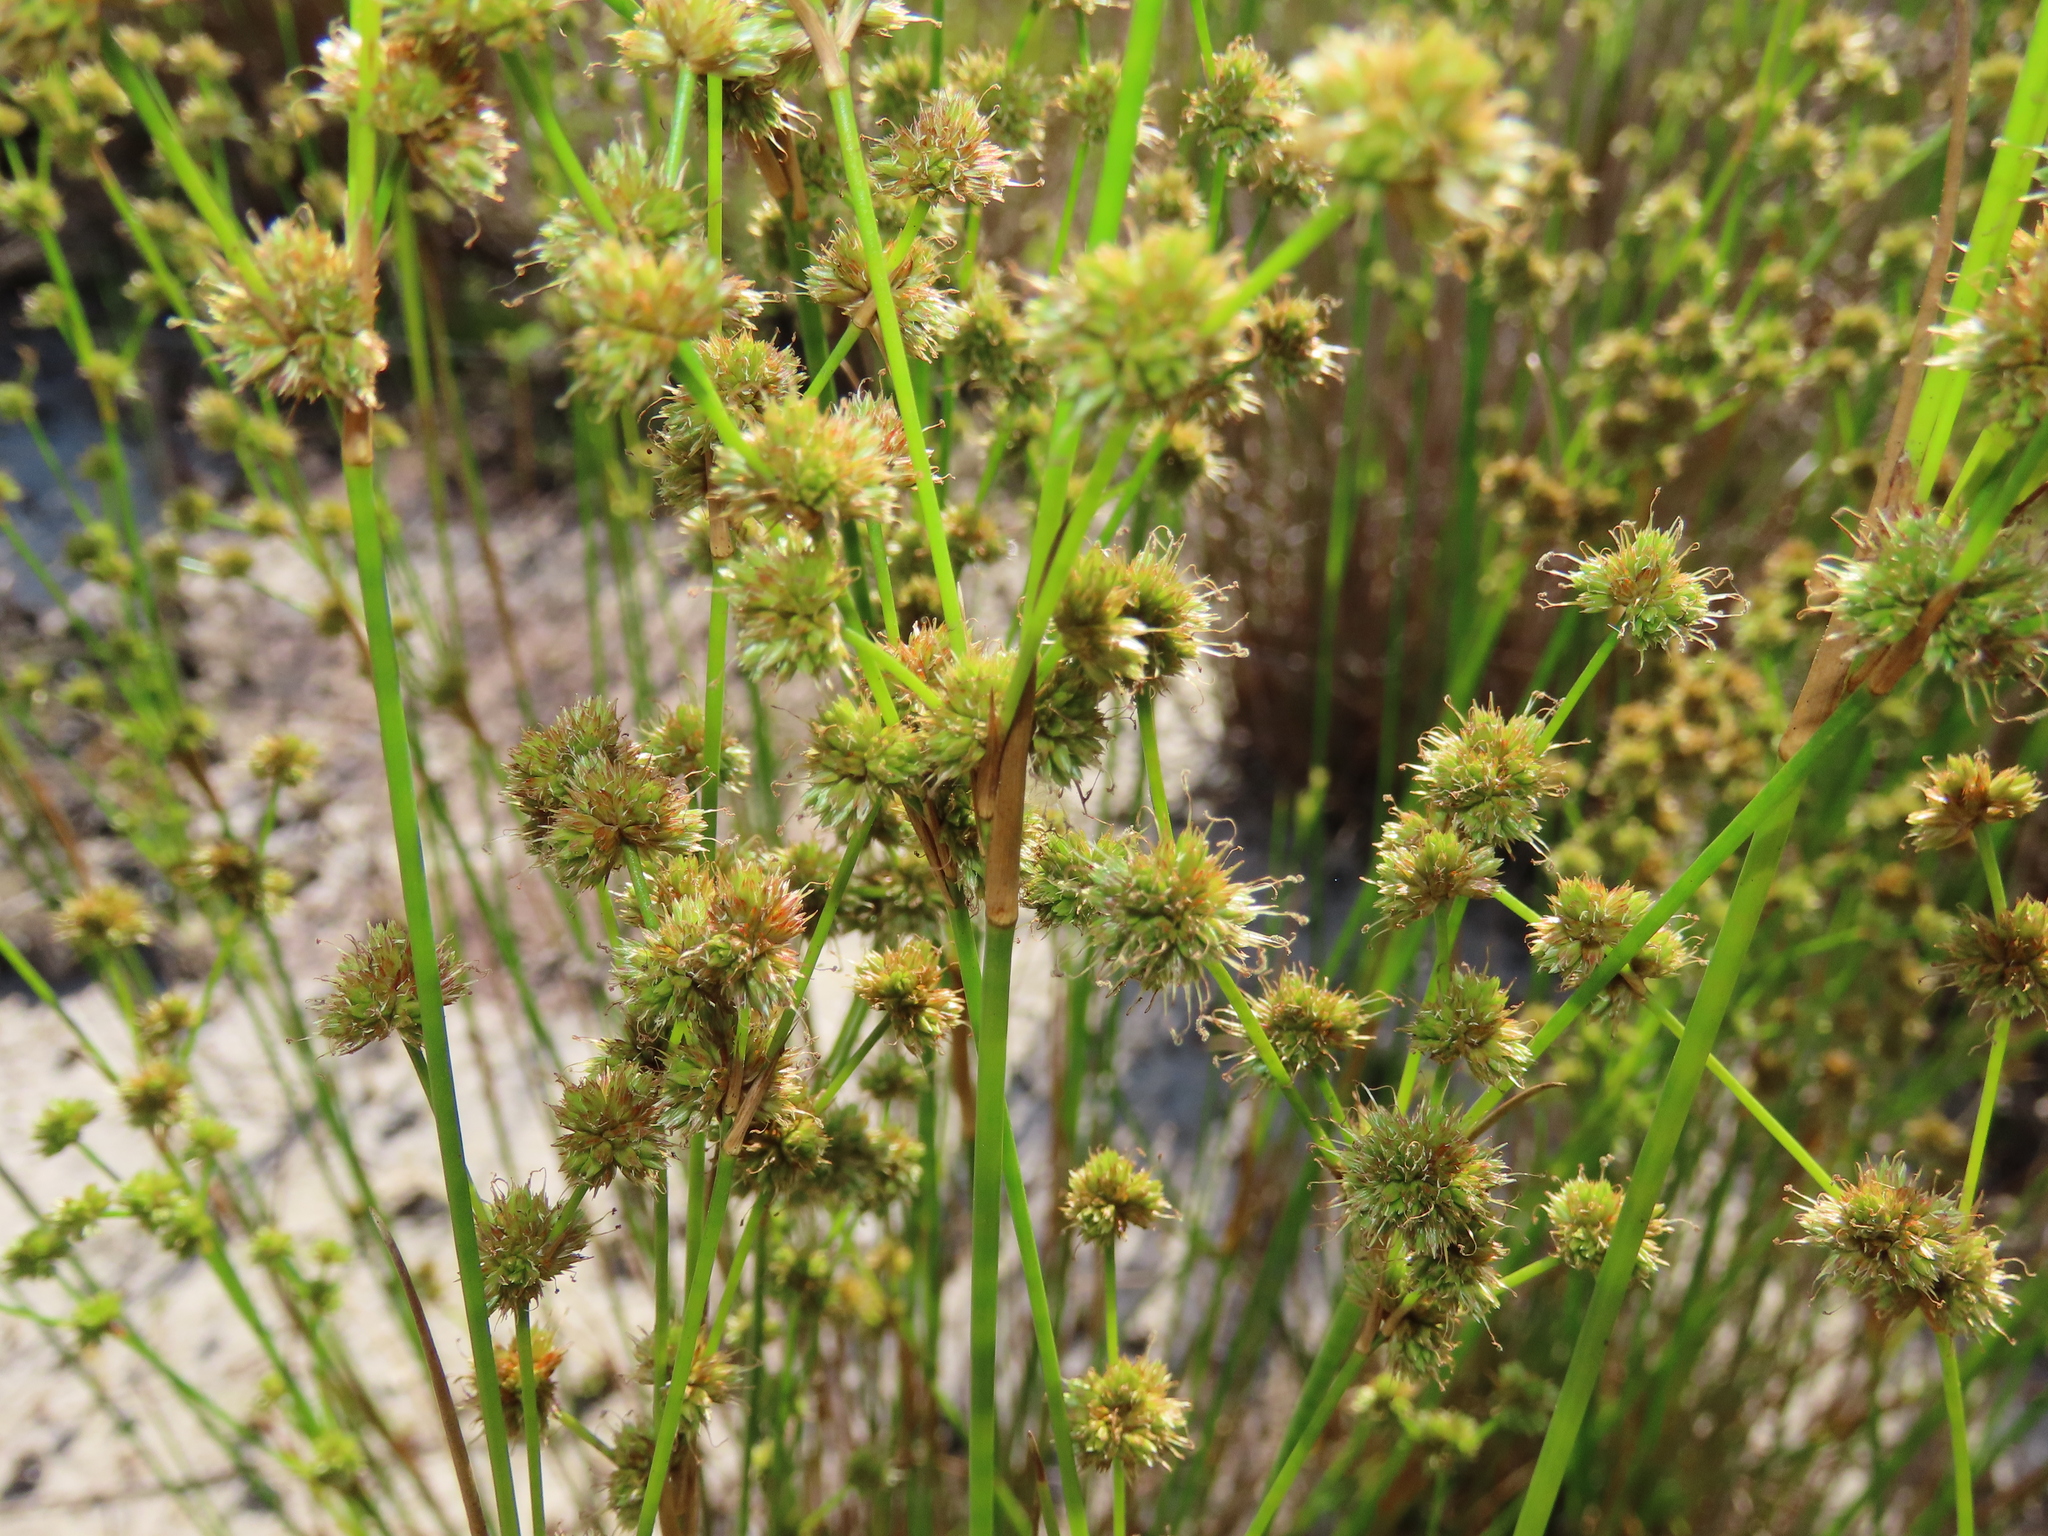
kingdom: Plantae
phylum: Tracheophyta
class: Liliopsida
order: Poales
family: Juncaceae
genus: Juncus
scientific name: Juncus scirpoides
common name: Needlepod rush
